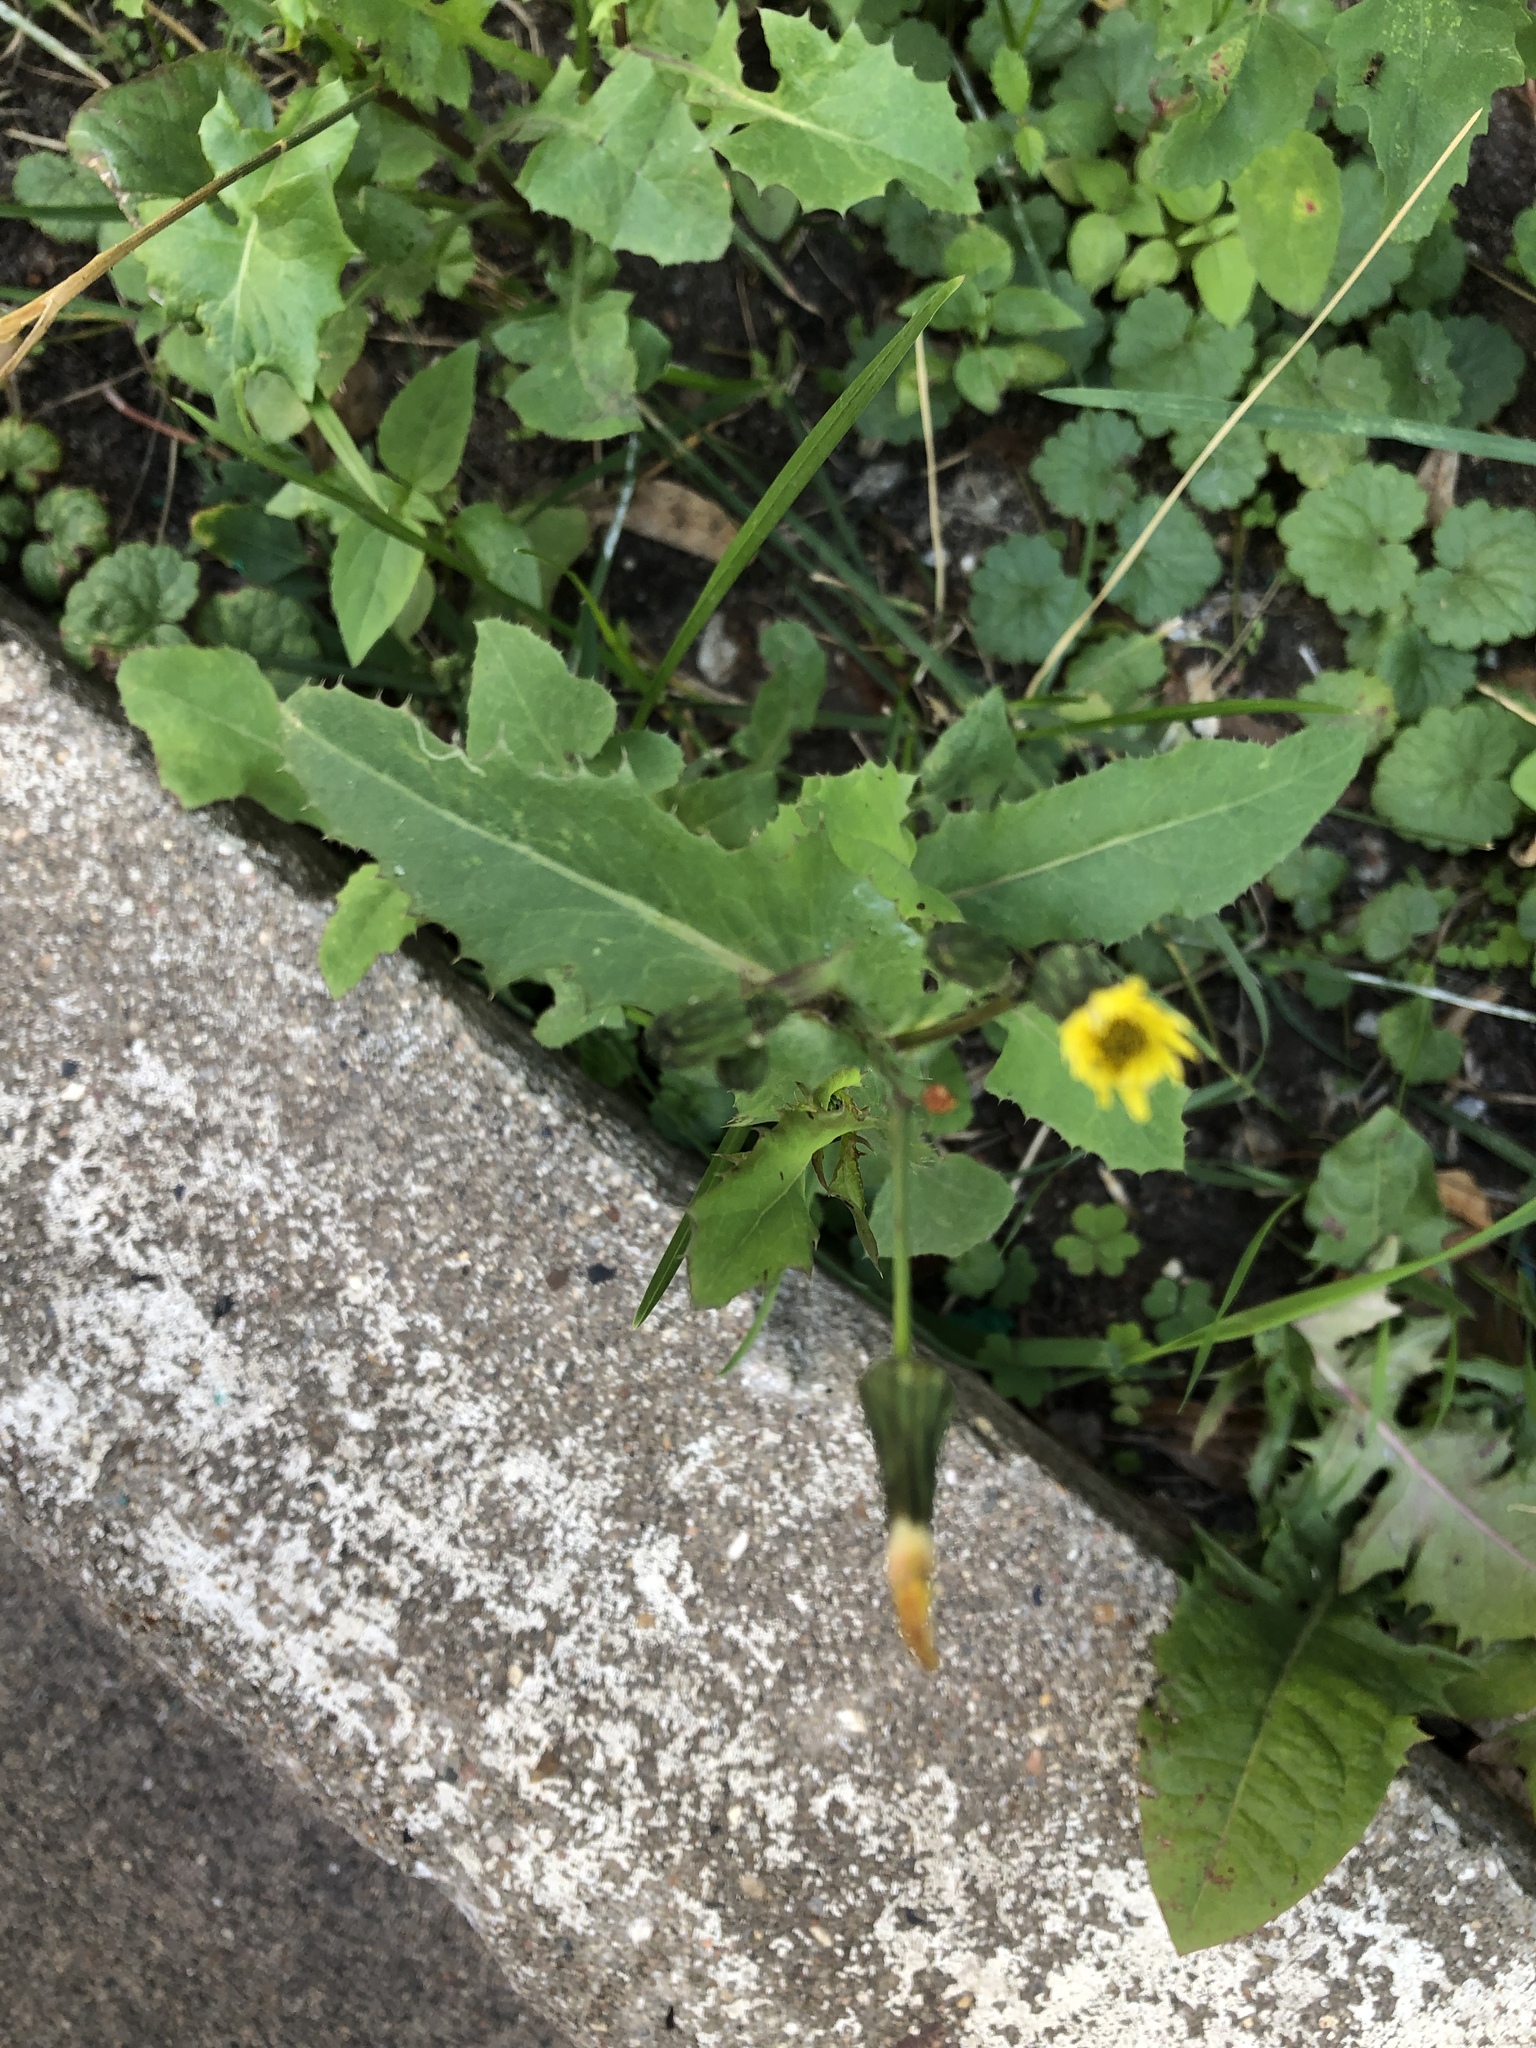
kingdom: Plantae
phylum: Tracheophyta
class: Magnoliopsida
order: Asterales
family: Asteraceae
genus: Sonchus
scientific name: Sonchus asper
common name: Prickly sow-thistle
